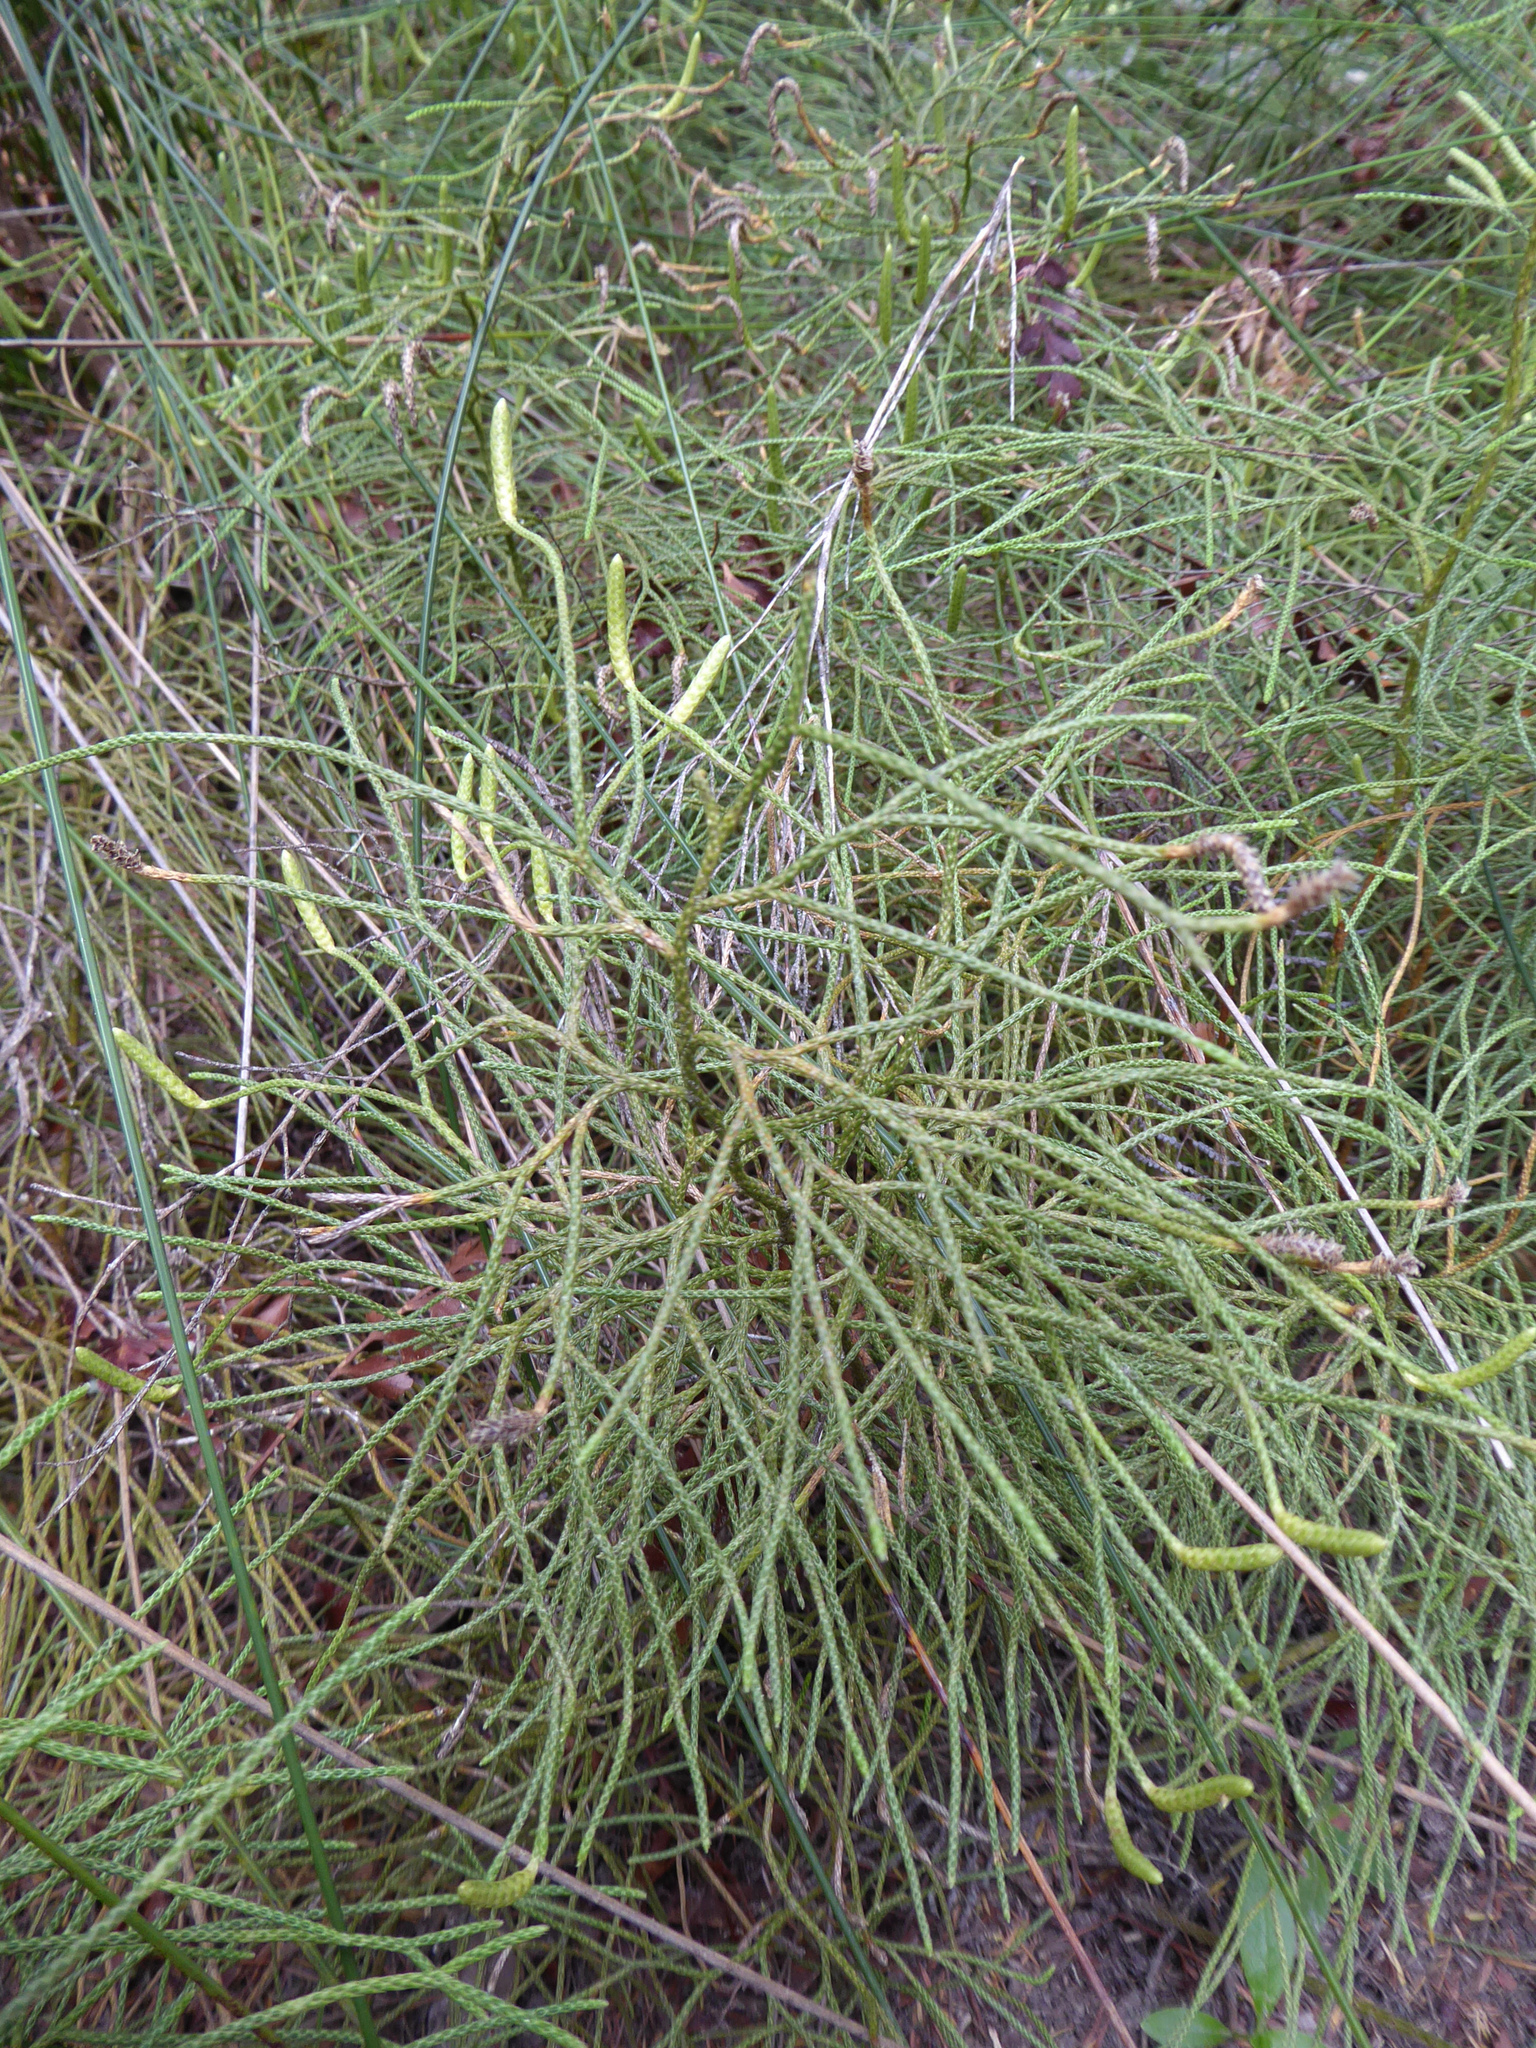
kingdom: Plantae
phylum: Tracheophyta
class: Lycopodiopsida
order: Lycopodiales
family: Lycopodiaceae
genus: Pseudolycopodium
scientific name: Pseudolycopodium densum
